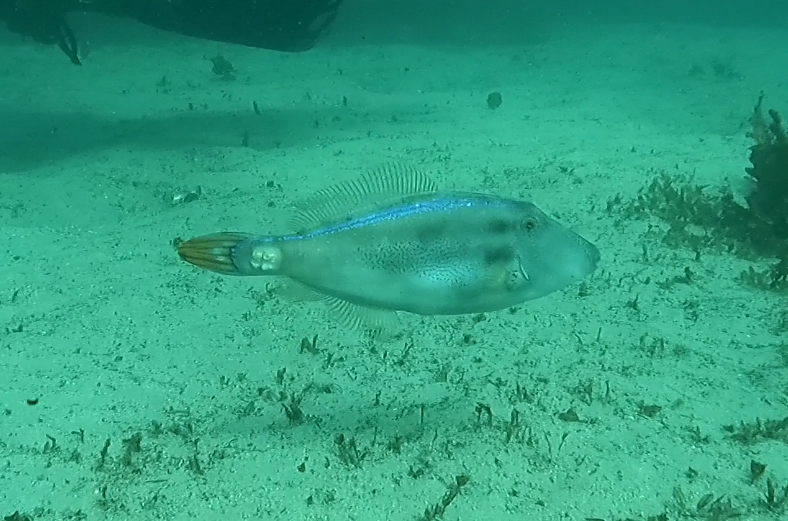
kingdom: Animalia
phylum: Chordata
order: Tetraodontiformes
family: Monacanthidae
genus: Meuschenia
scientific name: Meuschenia trachylepis
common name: Yellowfin leatherjacket
